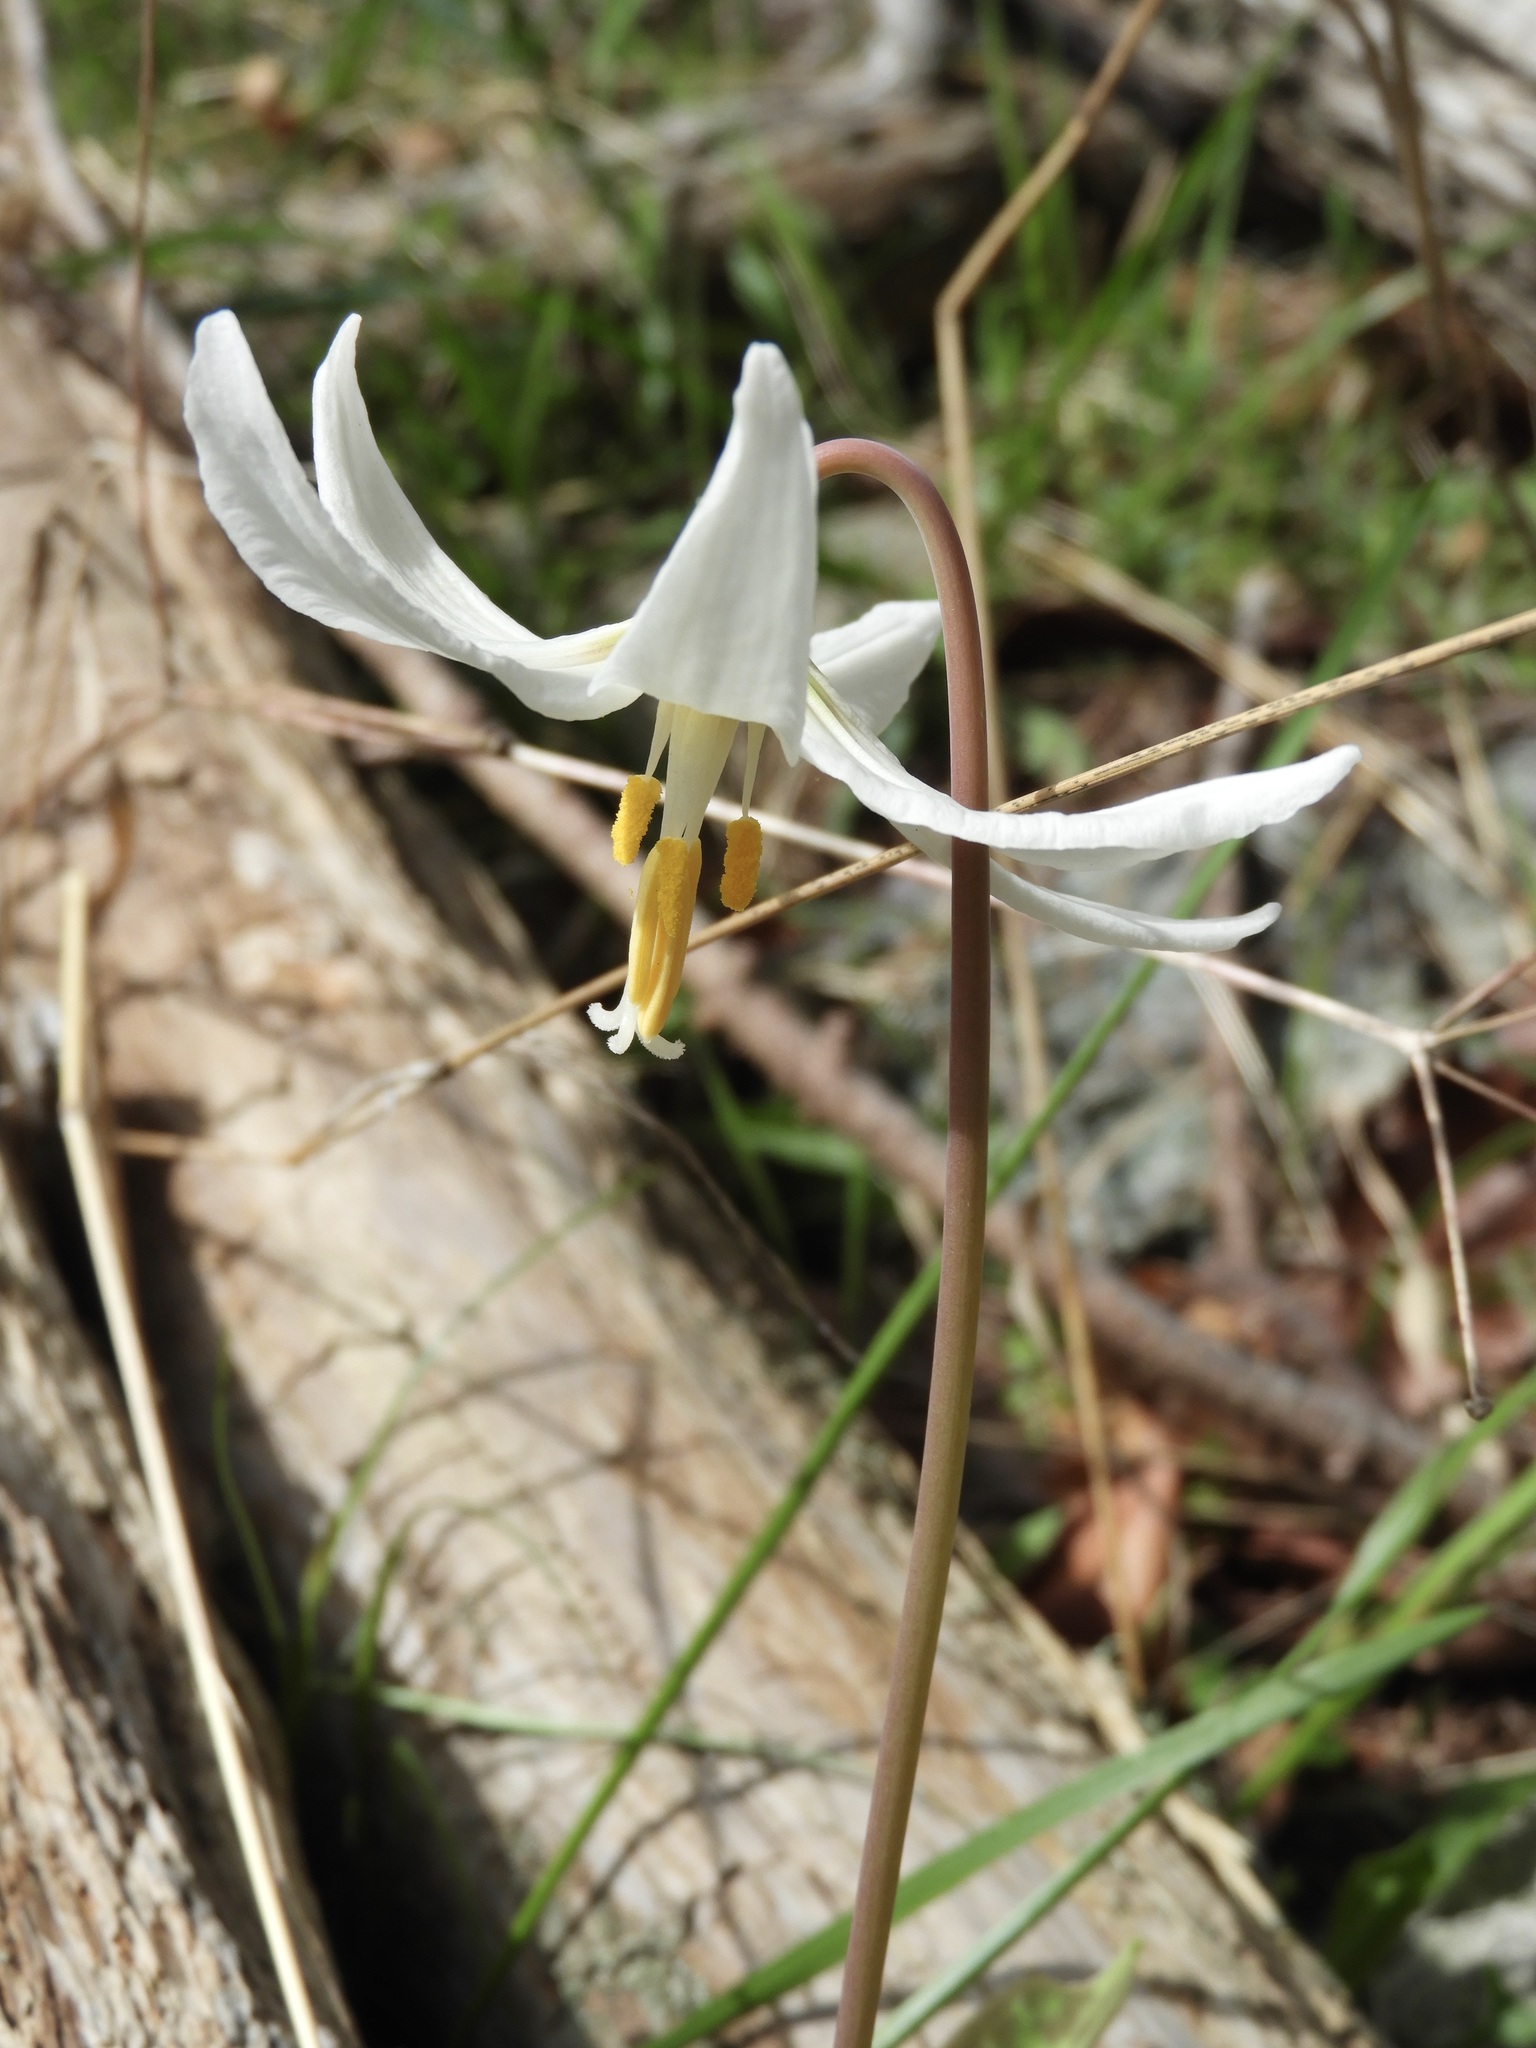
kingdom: Plantae
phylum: Tracheophyta
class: Liliopsida
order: Liliales
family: Liliaceae
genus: Erythronium
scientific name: Erythronium oregonum
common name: Giant adder's-tongue
